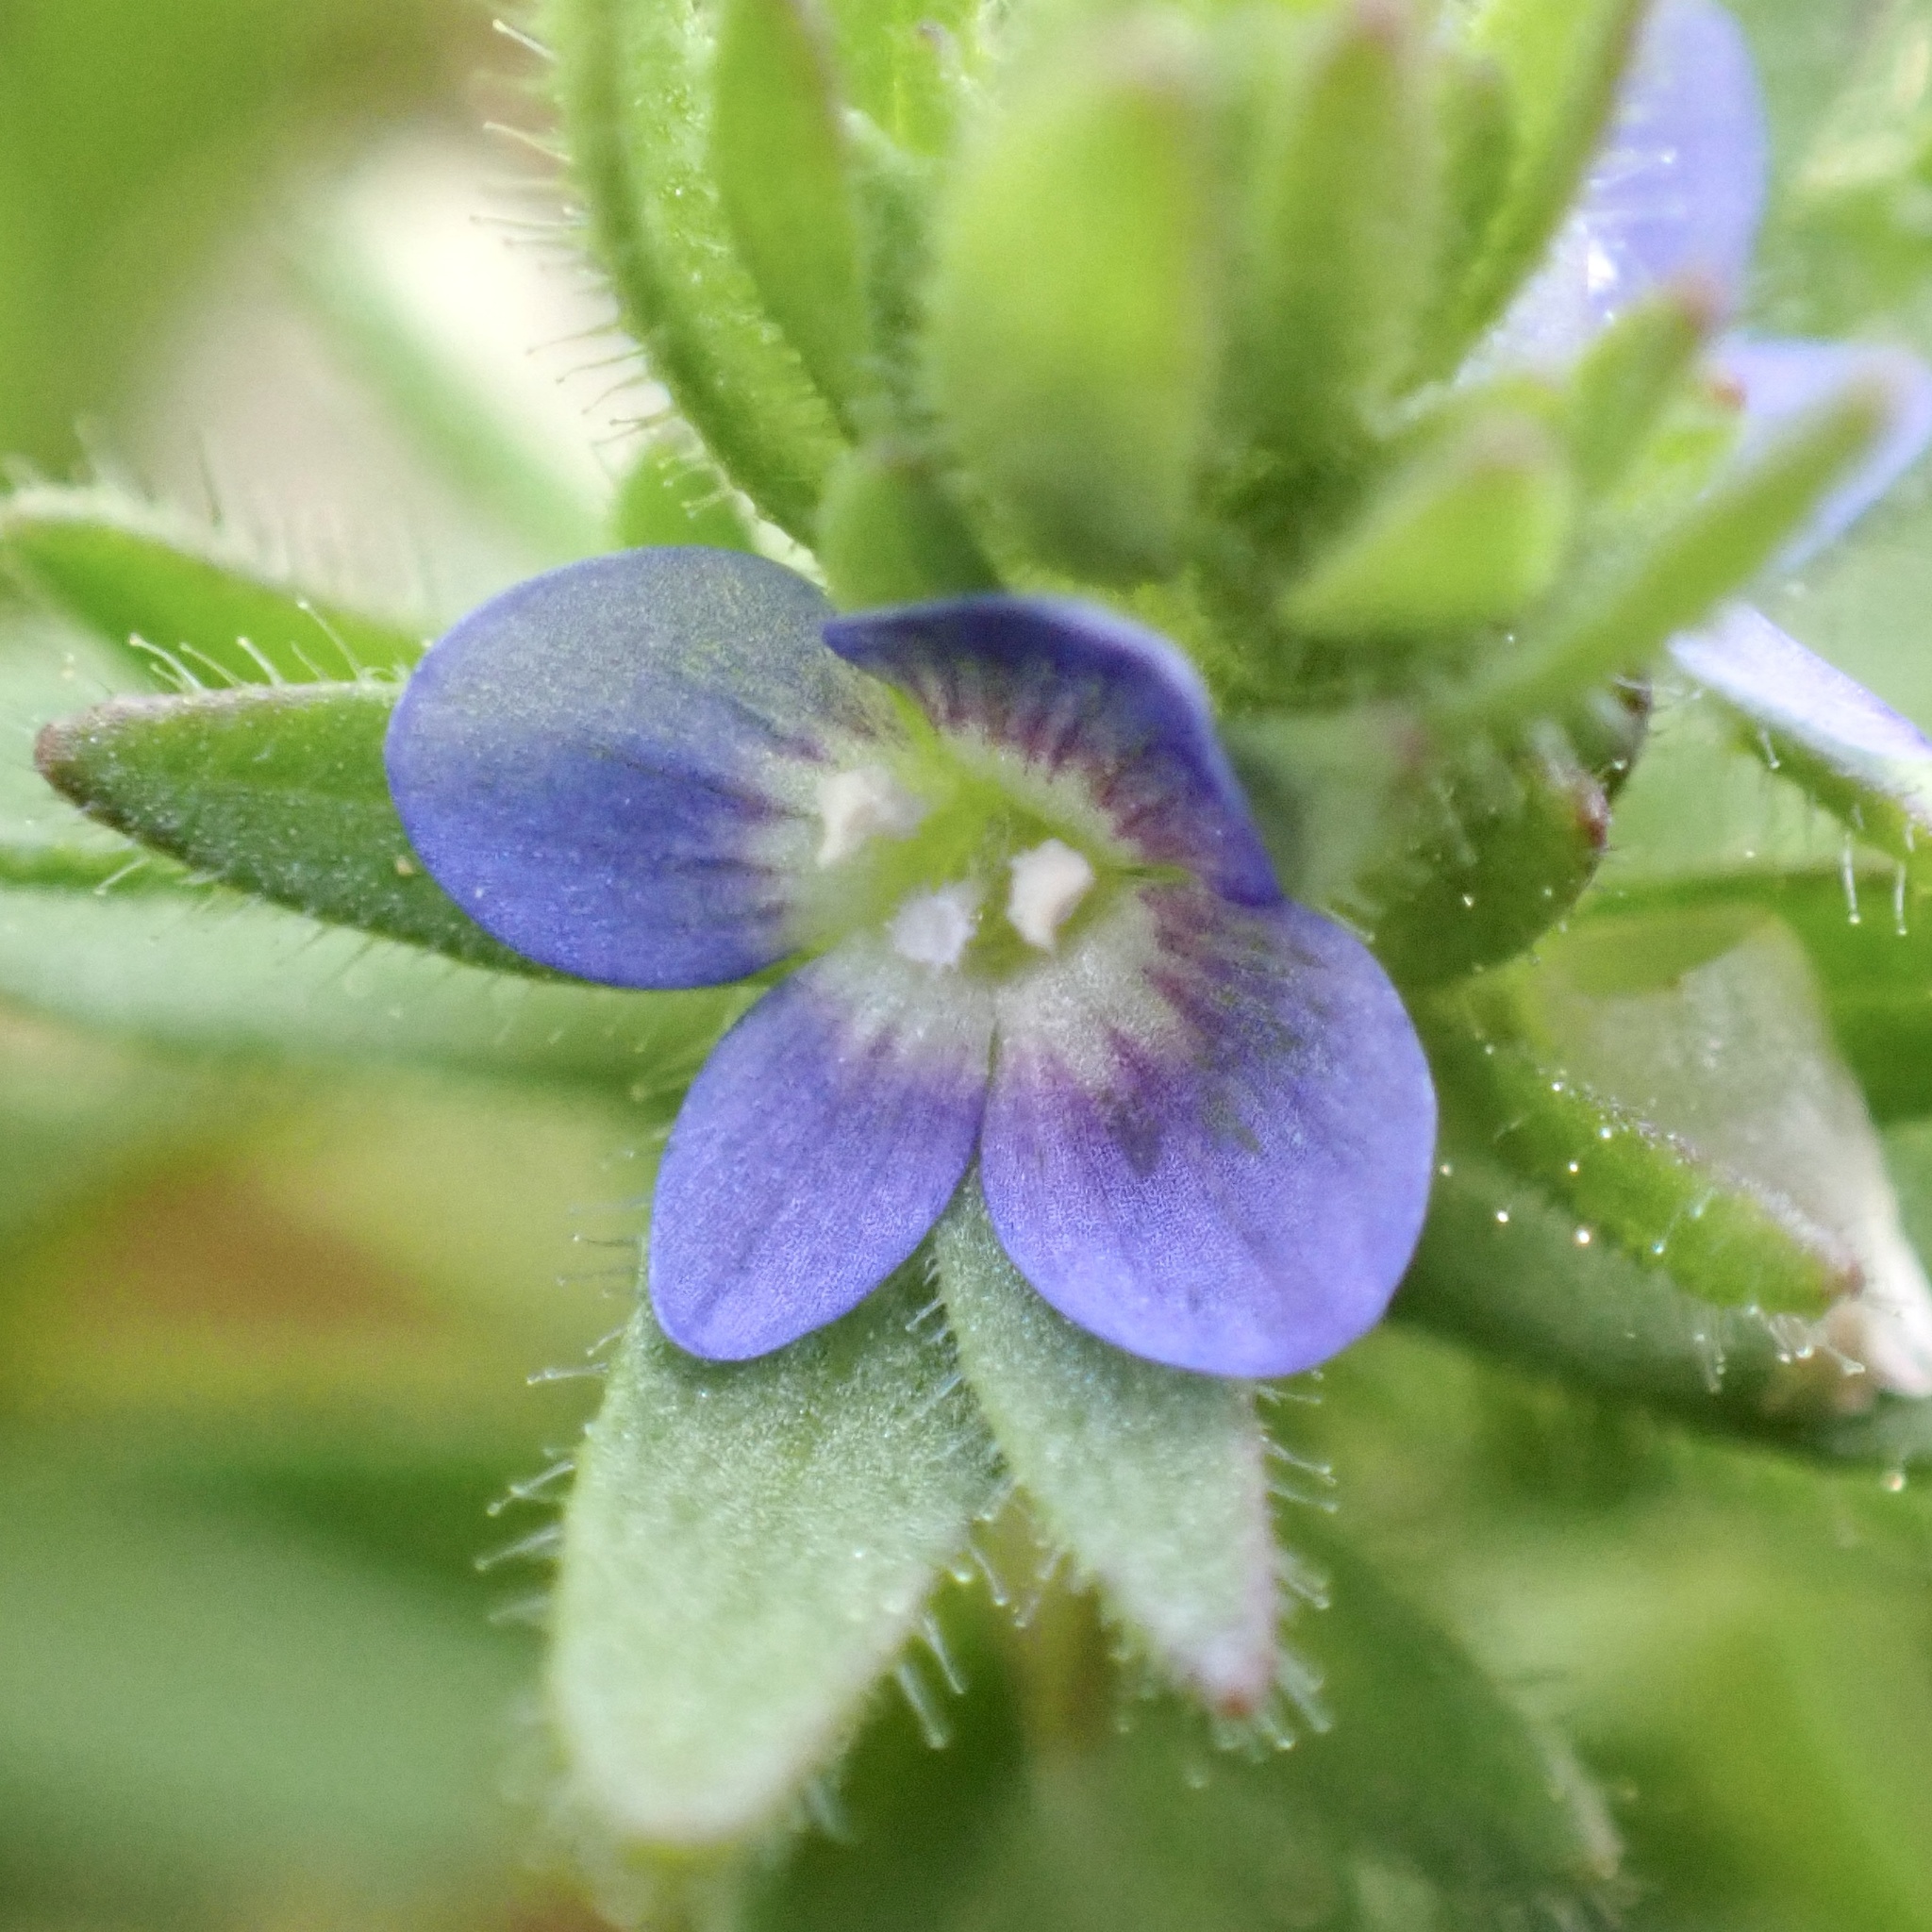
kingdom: Plantae
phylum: Tracheophyta
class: Magnoliopsida
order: Lamiales
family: Plantaginaceae
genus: Veronica
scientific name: Veronica arvensis
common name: Corn speedwell
